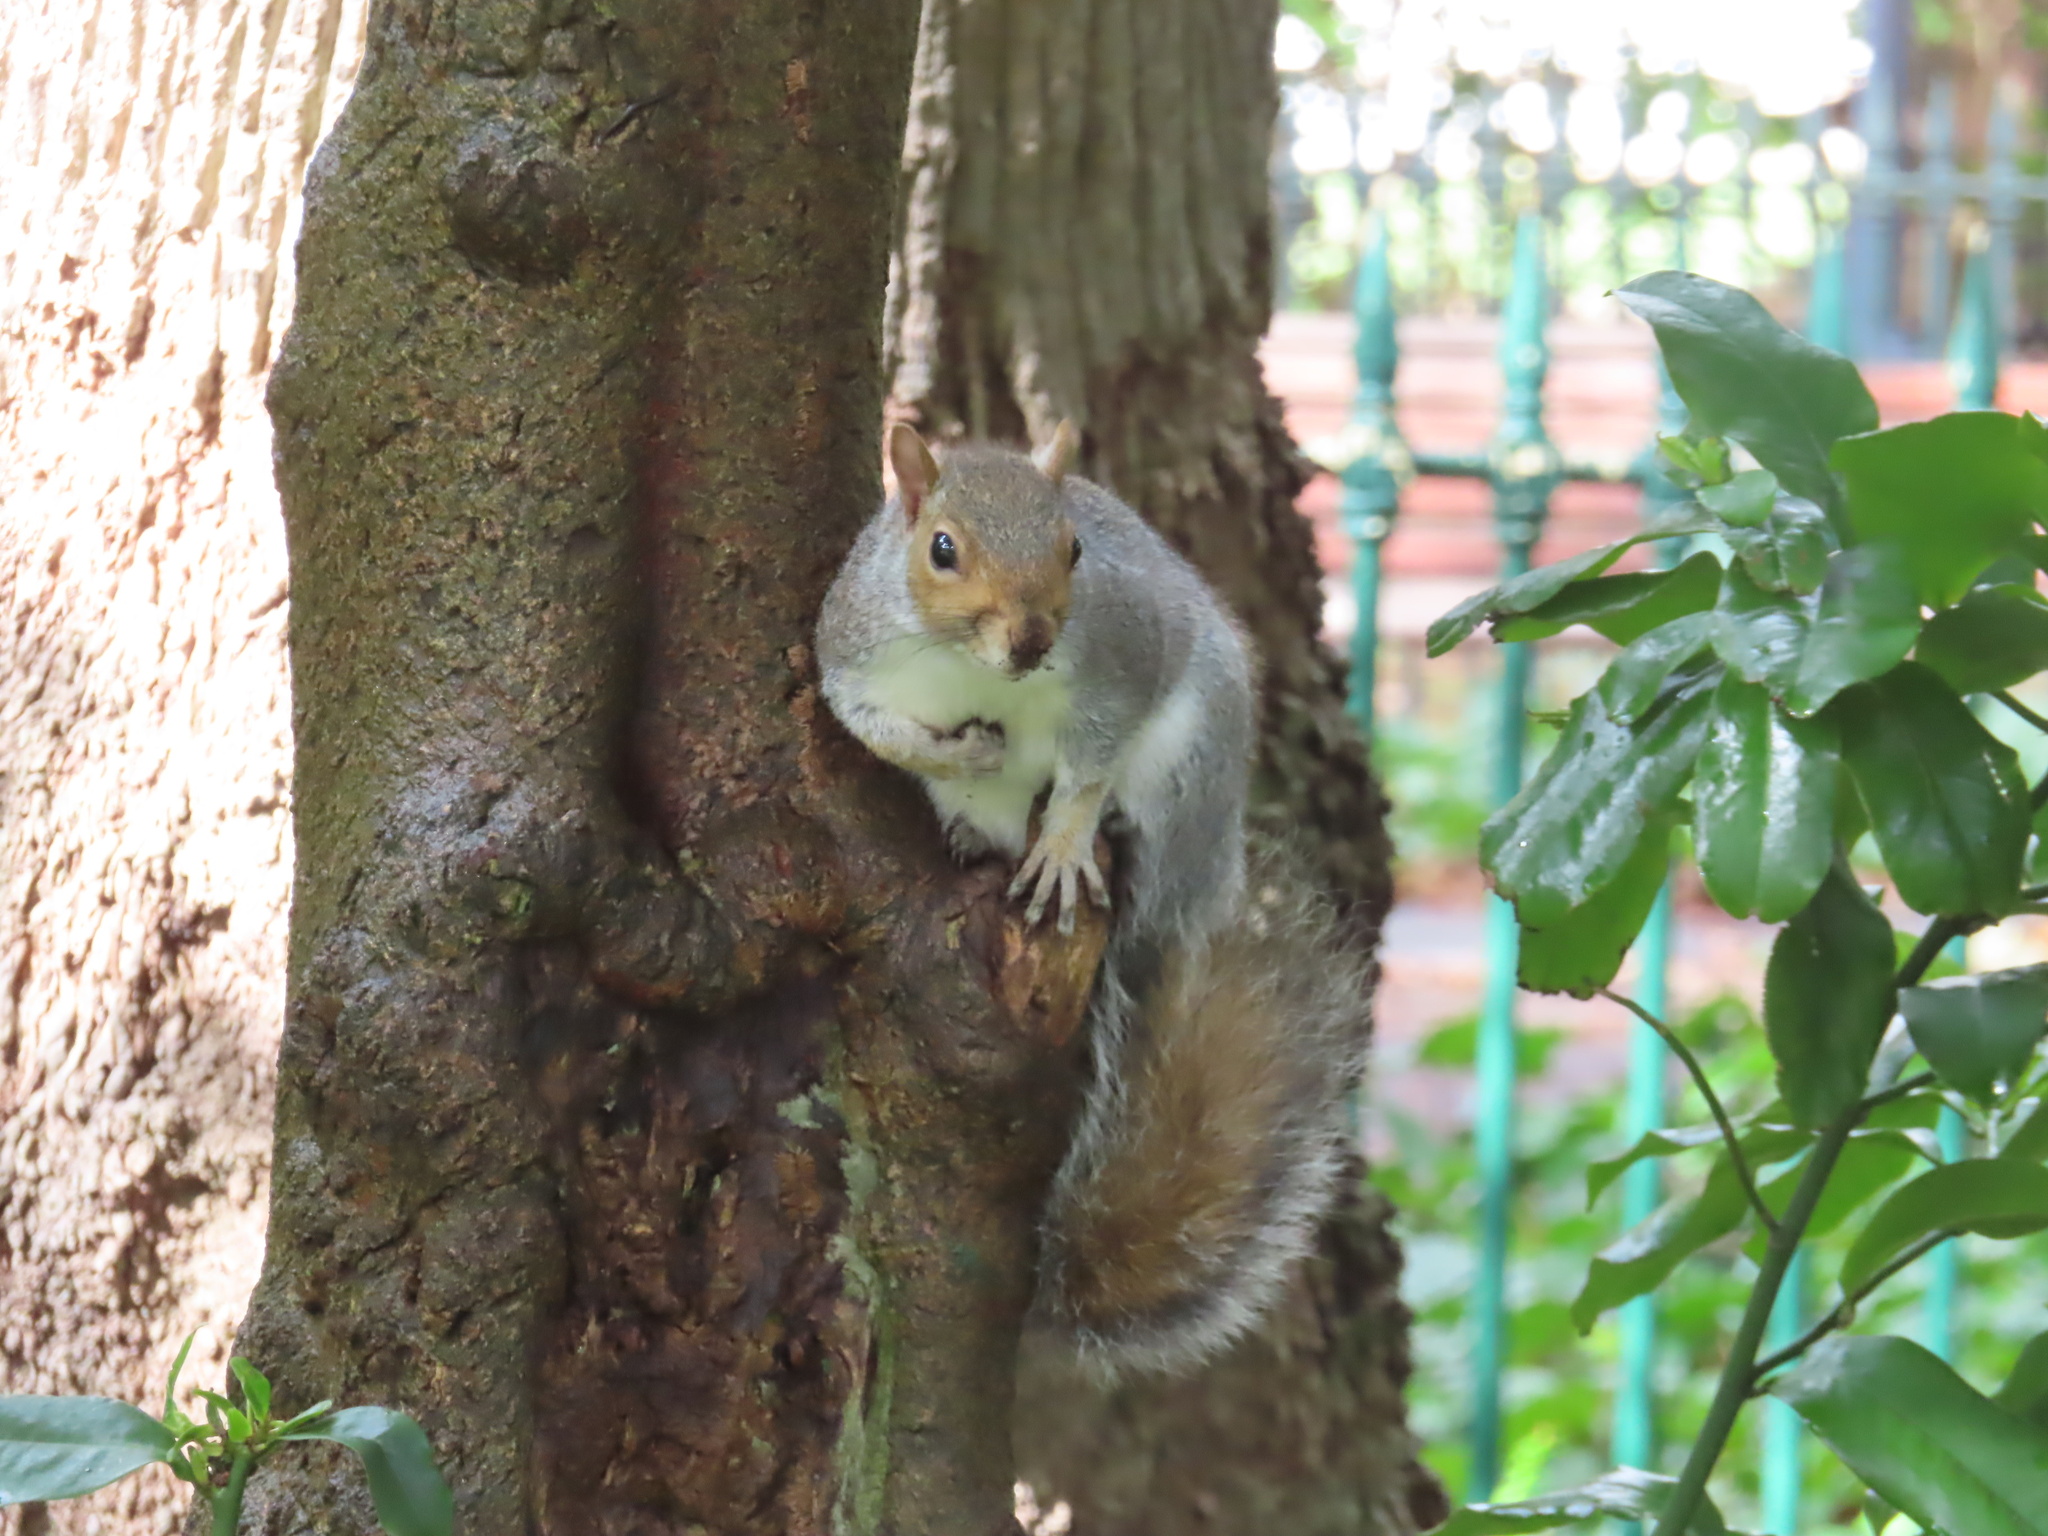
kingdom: Animalia
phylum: Chordata
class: Mammalia
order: Rodentia
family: Sciuridae
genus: Sciurus
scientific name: Sciurus carolinensis
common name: Eastern gray squirrel
